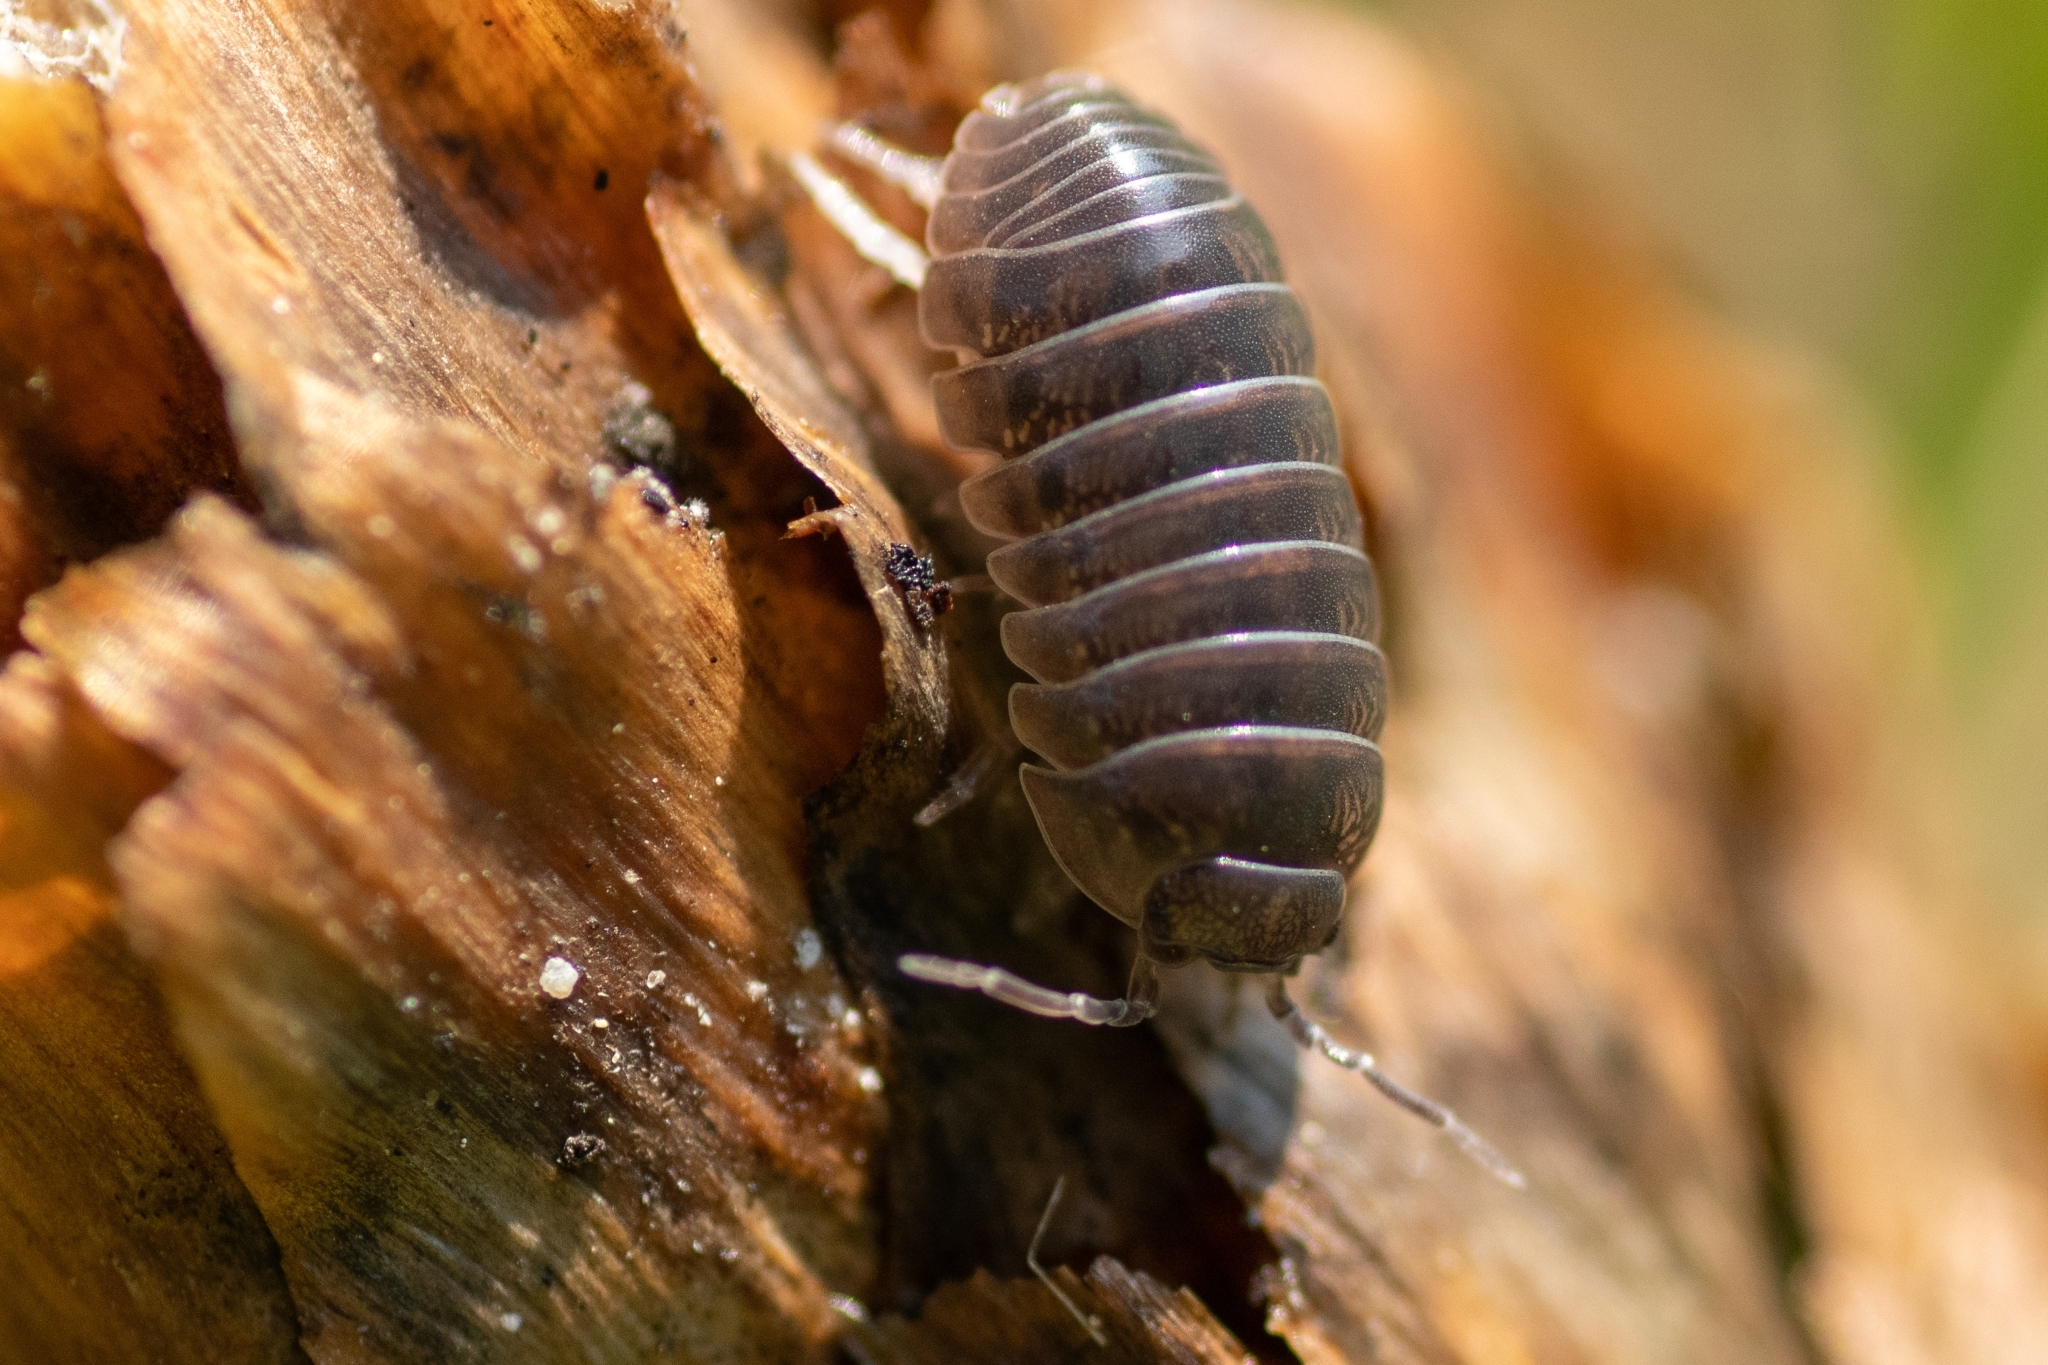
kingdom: Animalia
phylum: Arthropoda
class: Malacostraca
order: Isopoda
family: Armadillidiidae
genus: Armadillidium
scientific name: Armadillidium vulgare
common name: Common pill woodlouse
